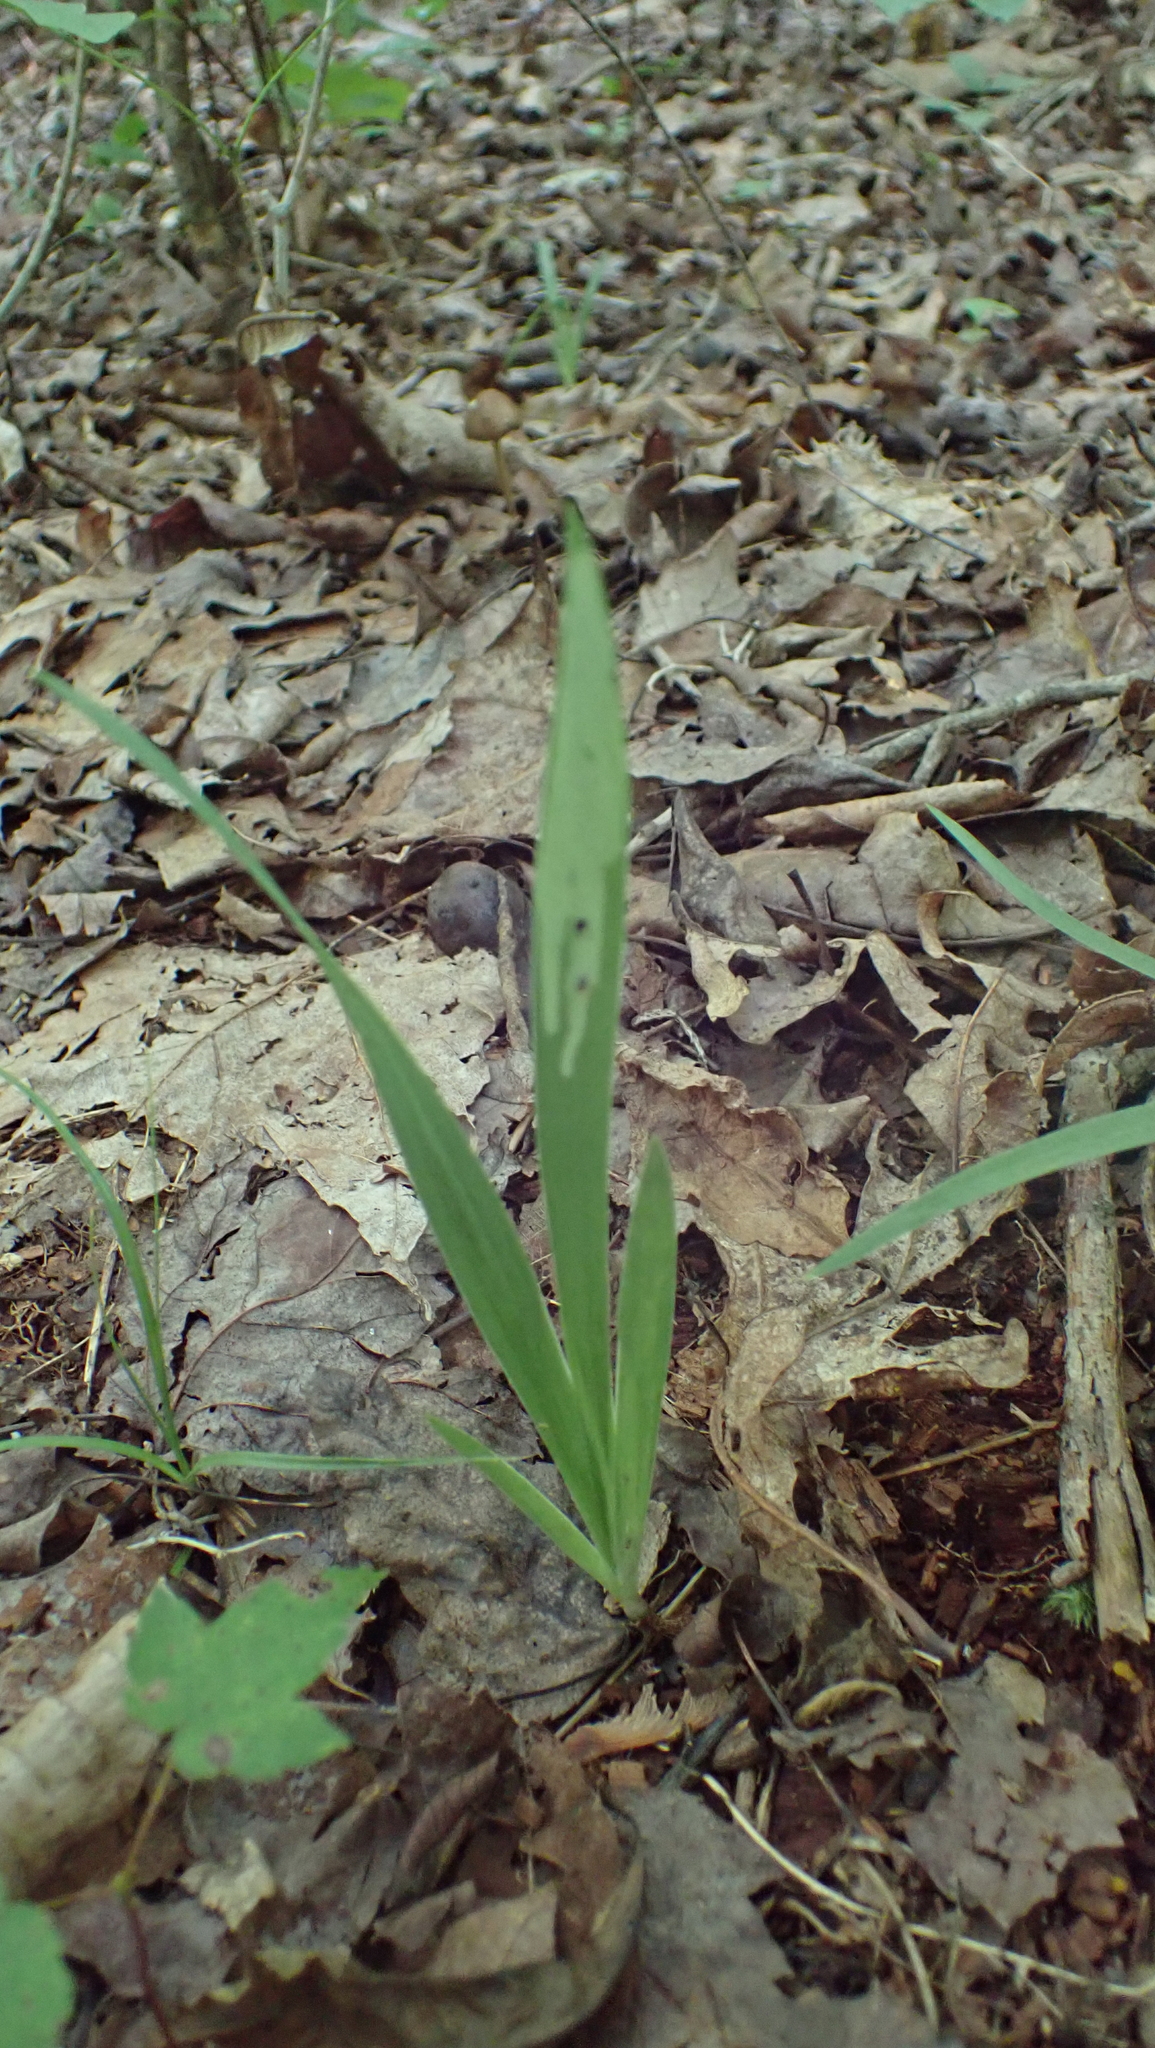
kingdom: Plantae
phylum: Tracheophyta
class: Liliopsida
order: Asparagales
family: Iridaceae
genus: Iris
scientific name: Iris cristata
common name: Crested iris
